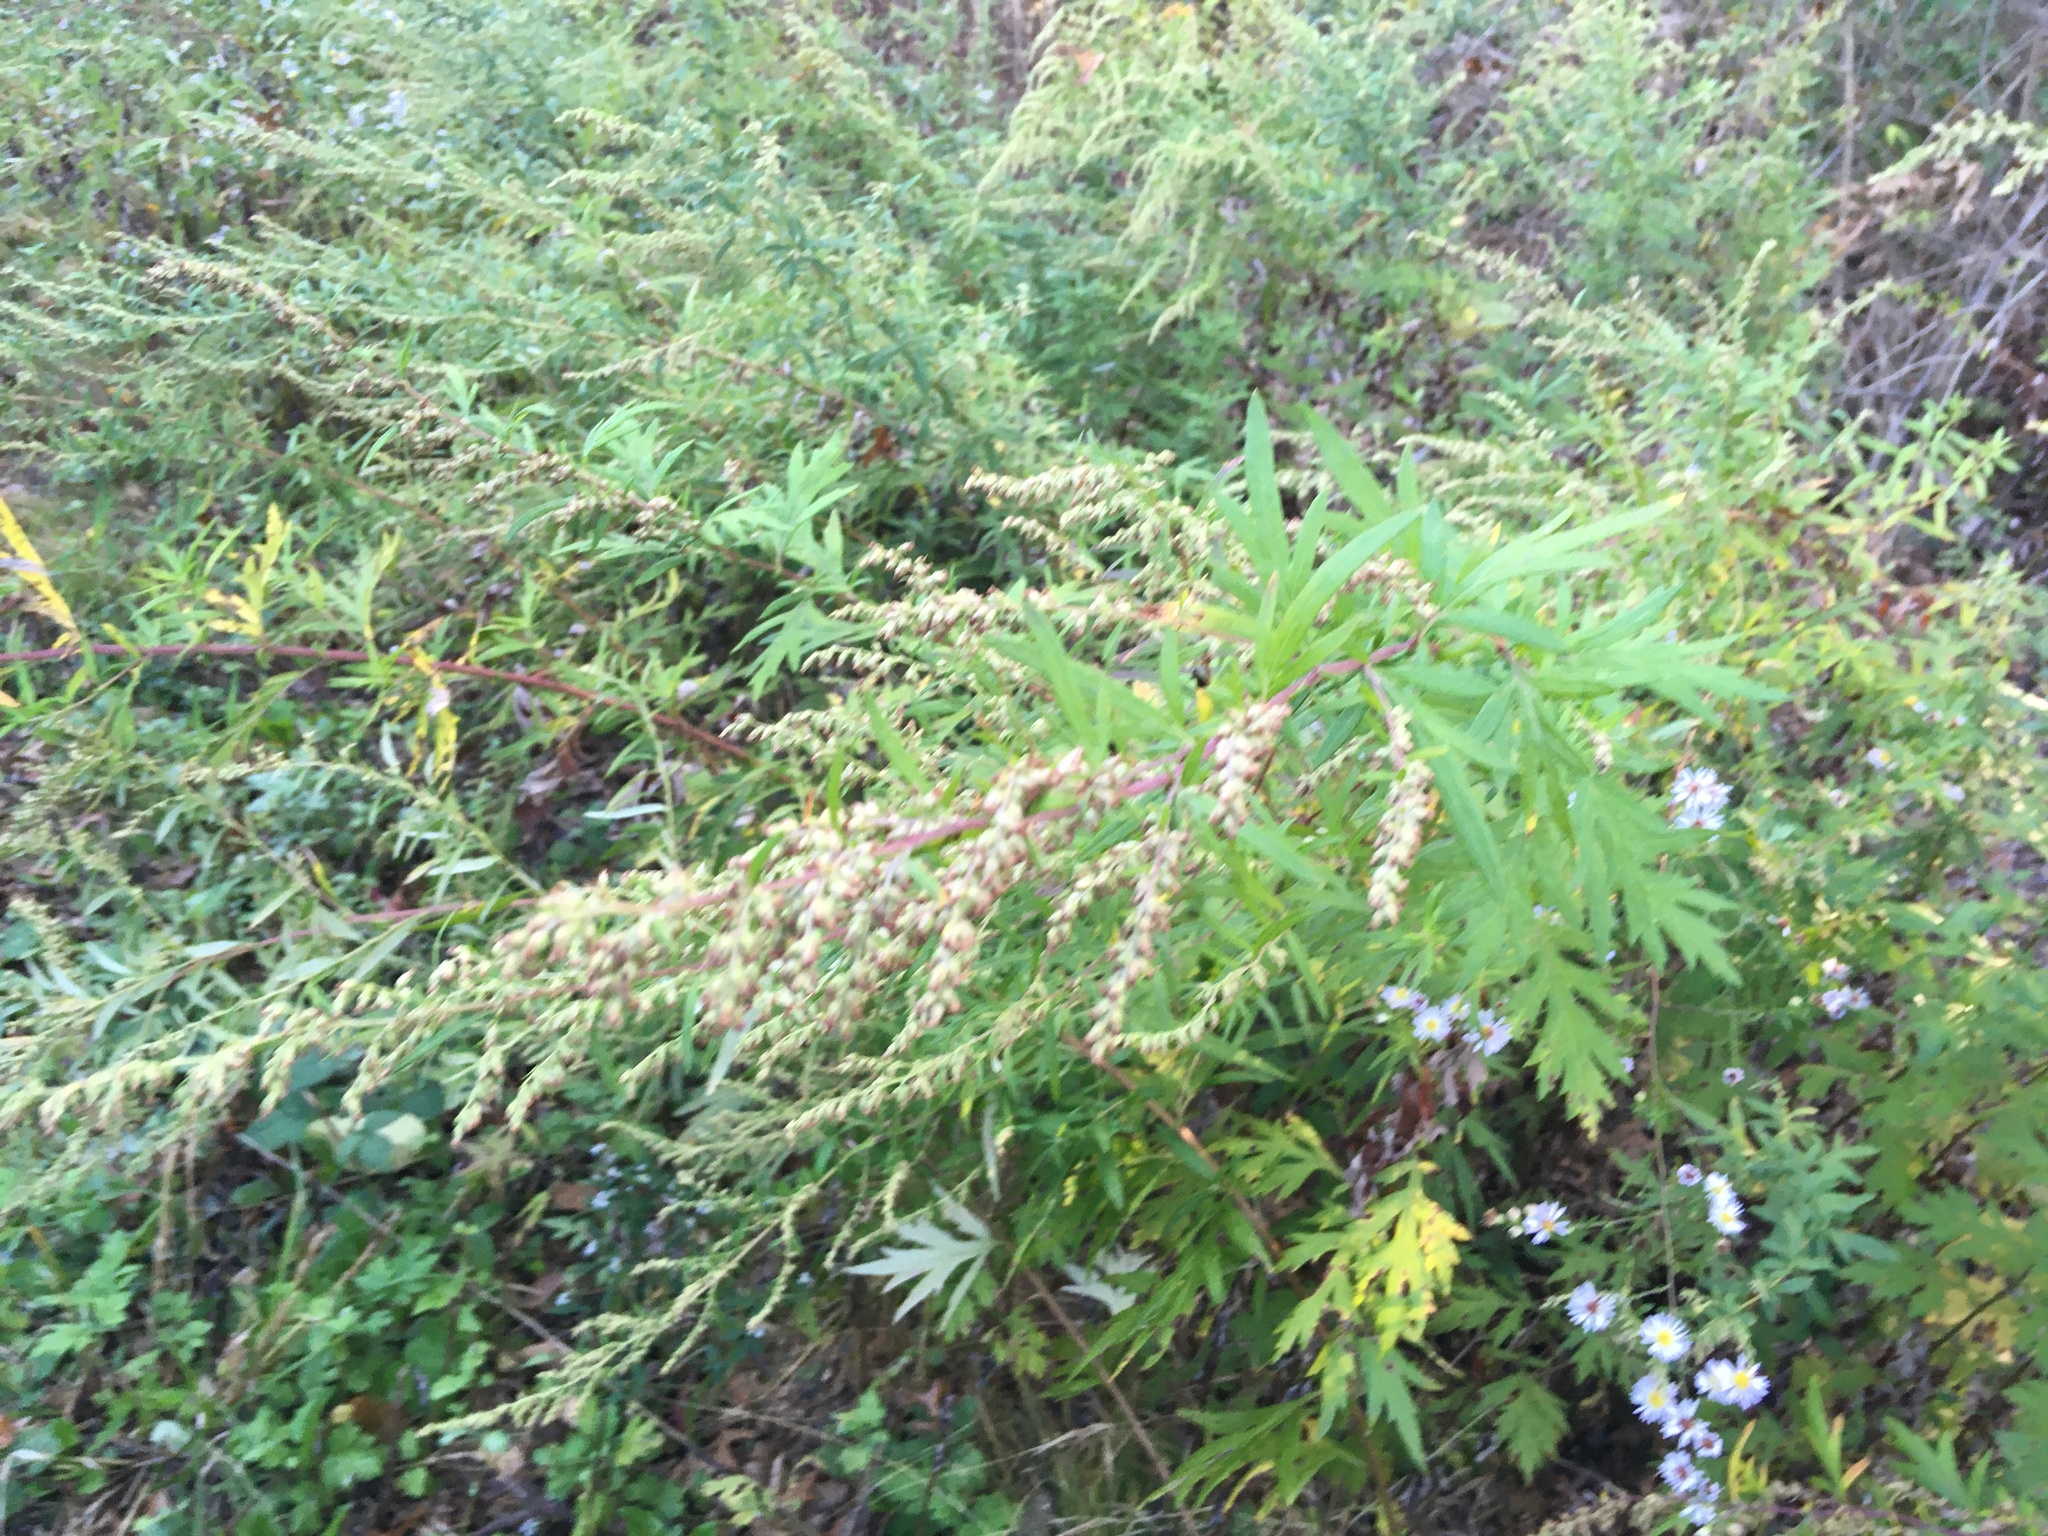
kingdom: Plantae
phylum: Tracheophyta
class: Magnoliopsida
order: Asterales
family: Asteraceae
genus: Artemisia
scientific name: Artemisia vulgaris
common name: Mugwort
